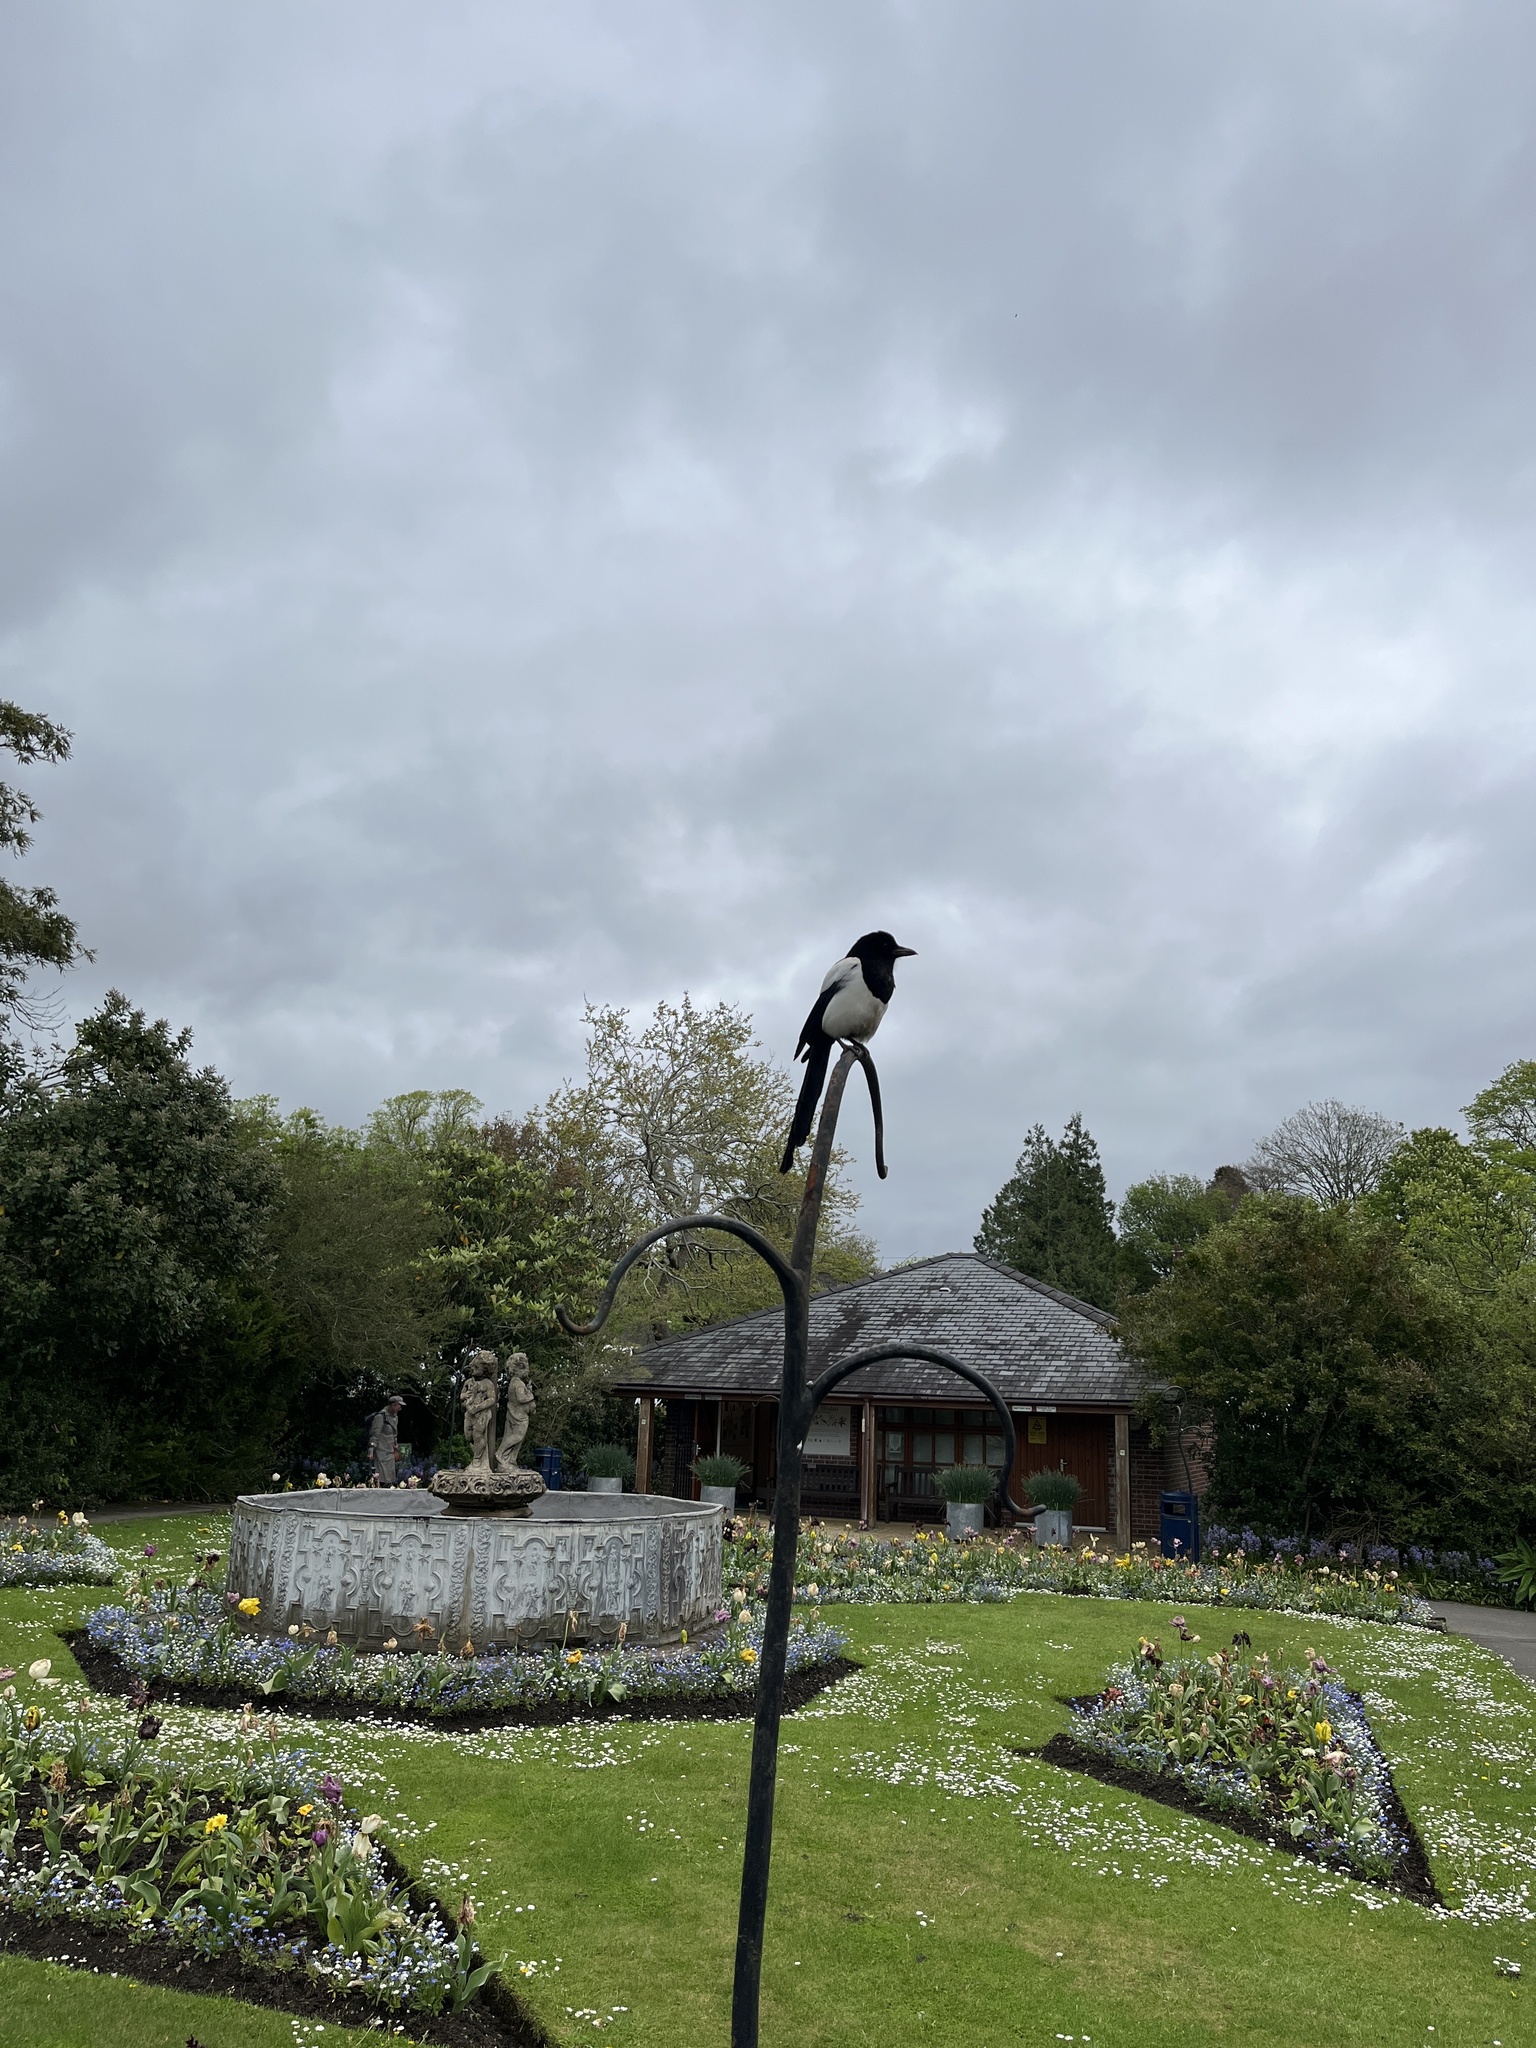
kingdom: Animalia
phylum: Chordata
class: Aves
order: Passeriformes
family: Corvidae
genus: Pica
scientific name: Pica pica
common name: Eurasian magpie
